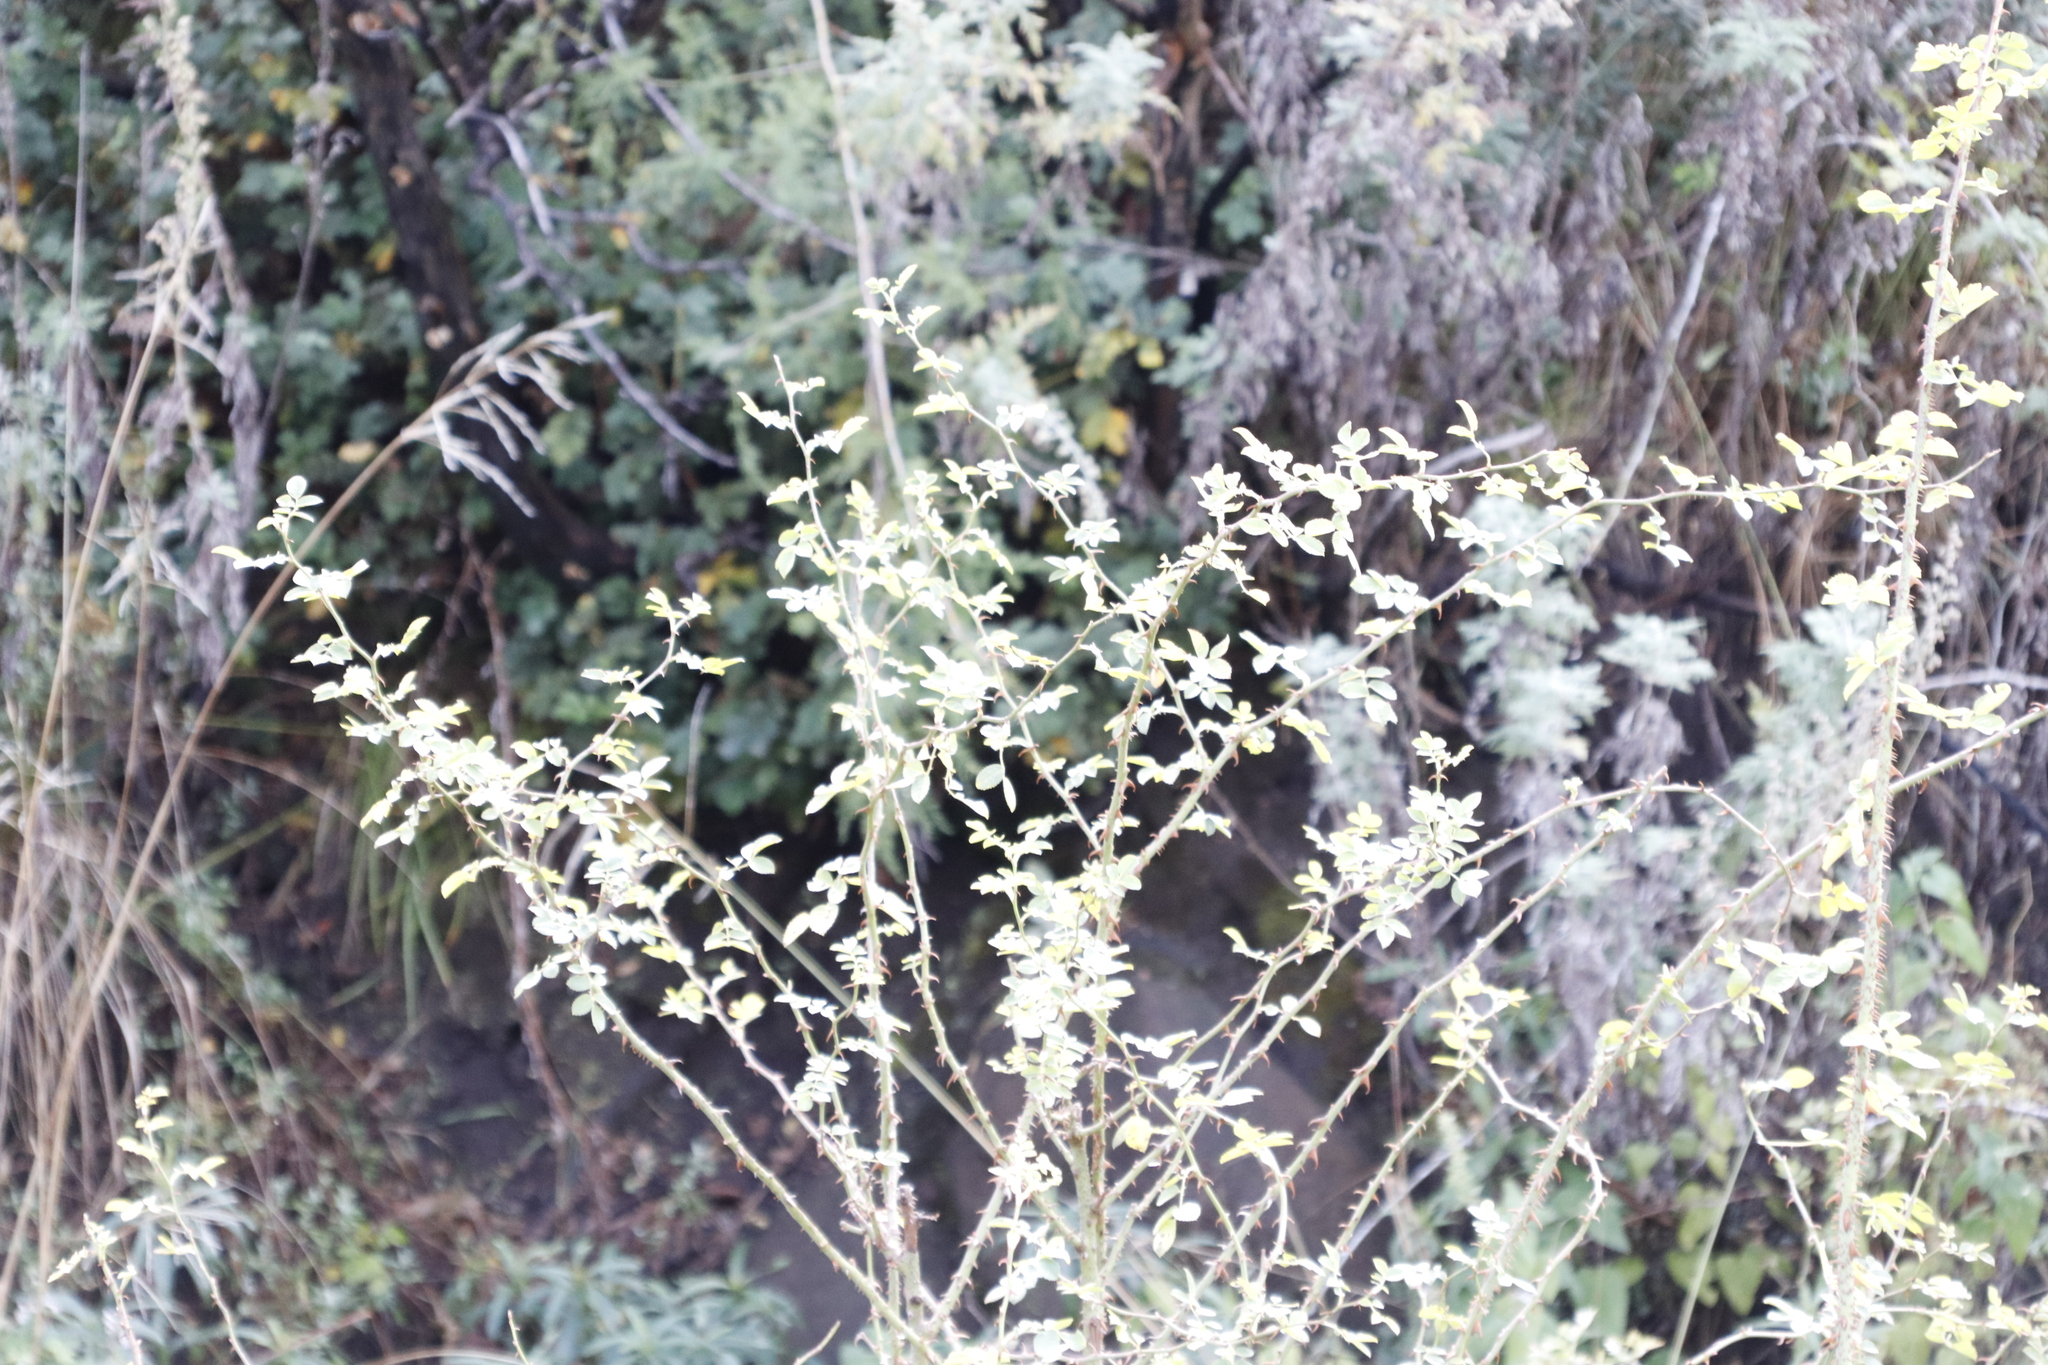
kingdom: Plantae
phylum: Tracheophyta
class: Magnoliopsida
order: Rosales
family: Rosaceae
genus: Rubus
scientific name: Rubus rigidus
